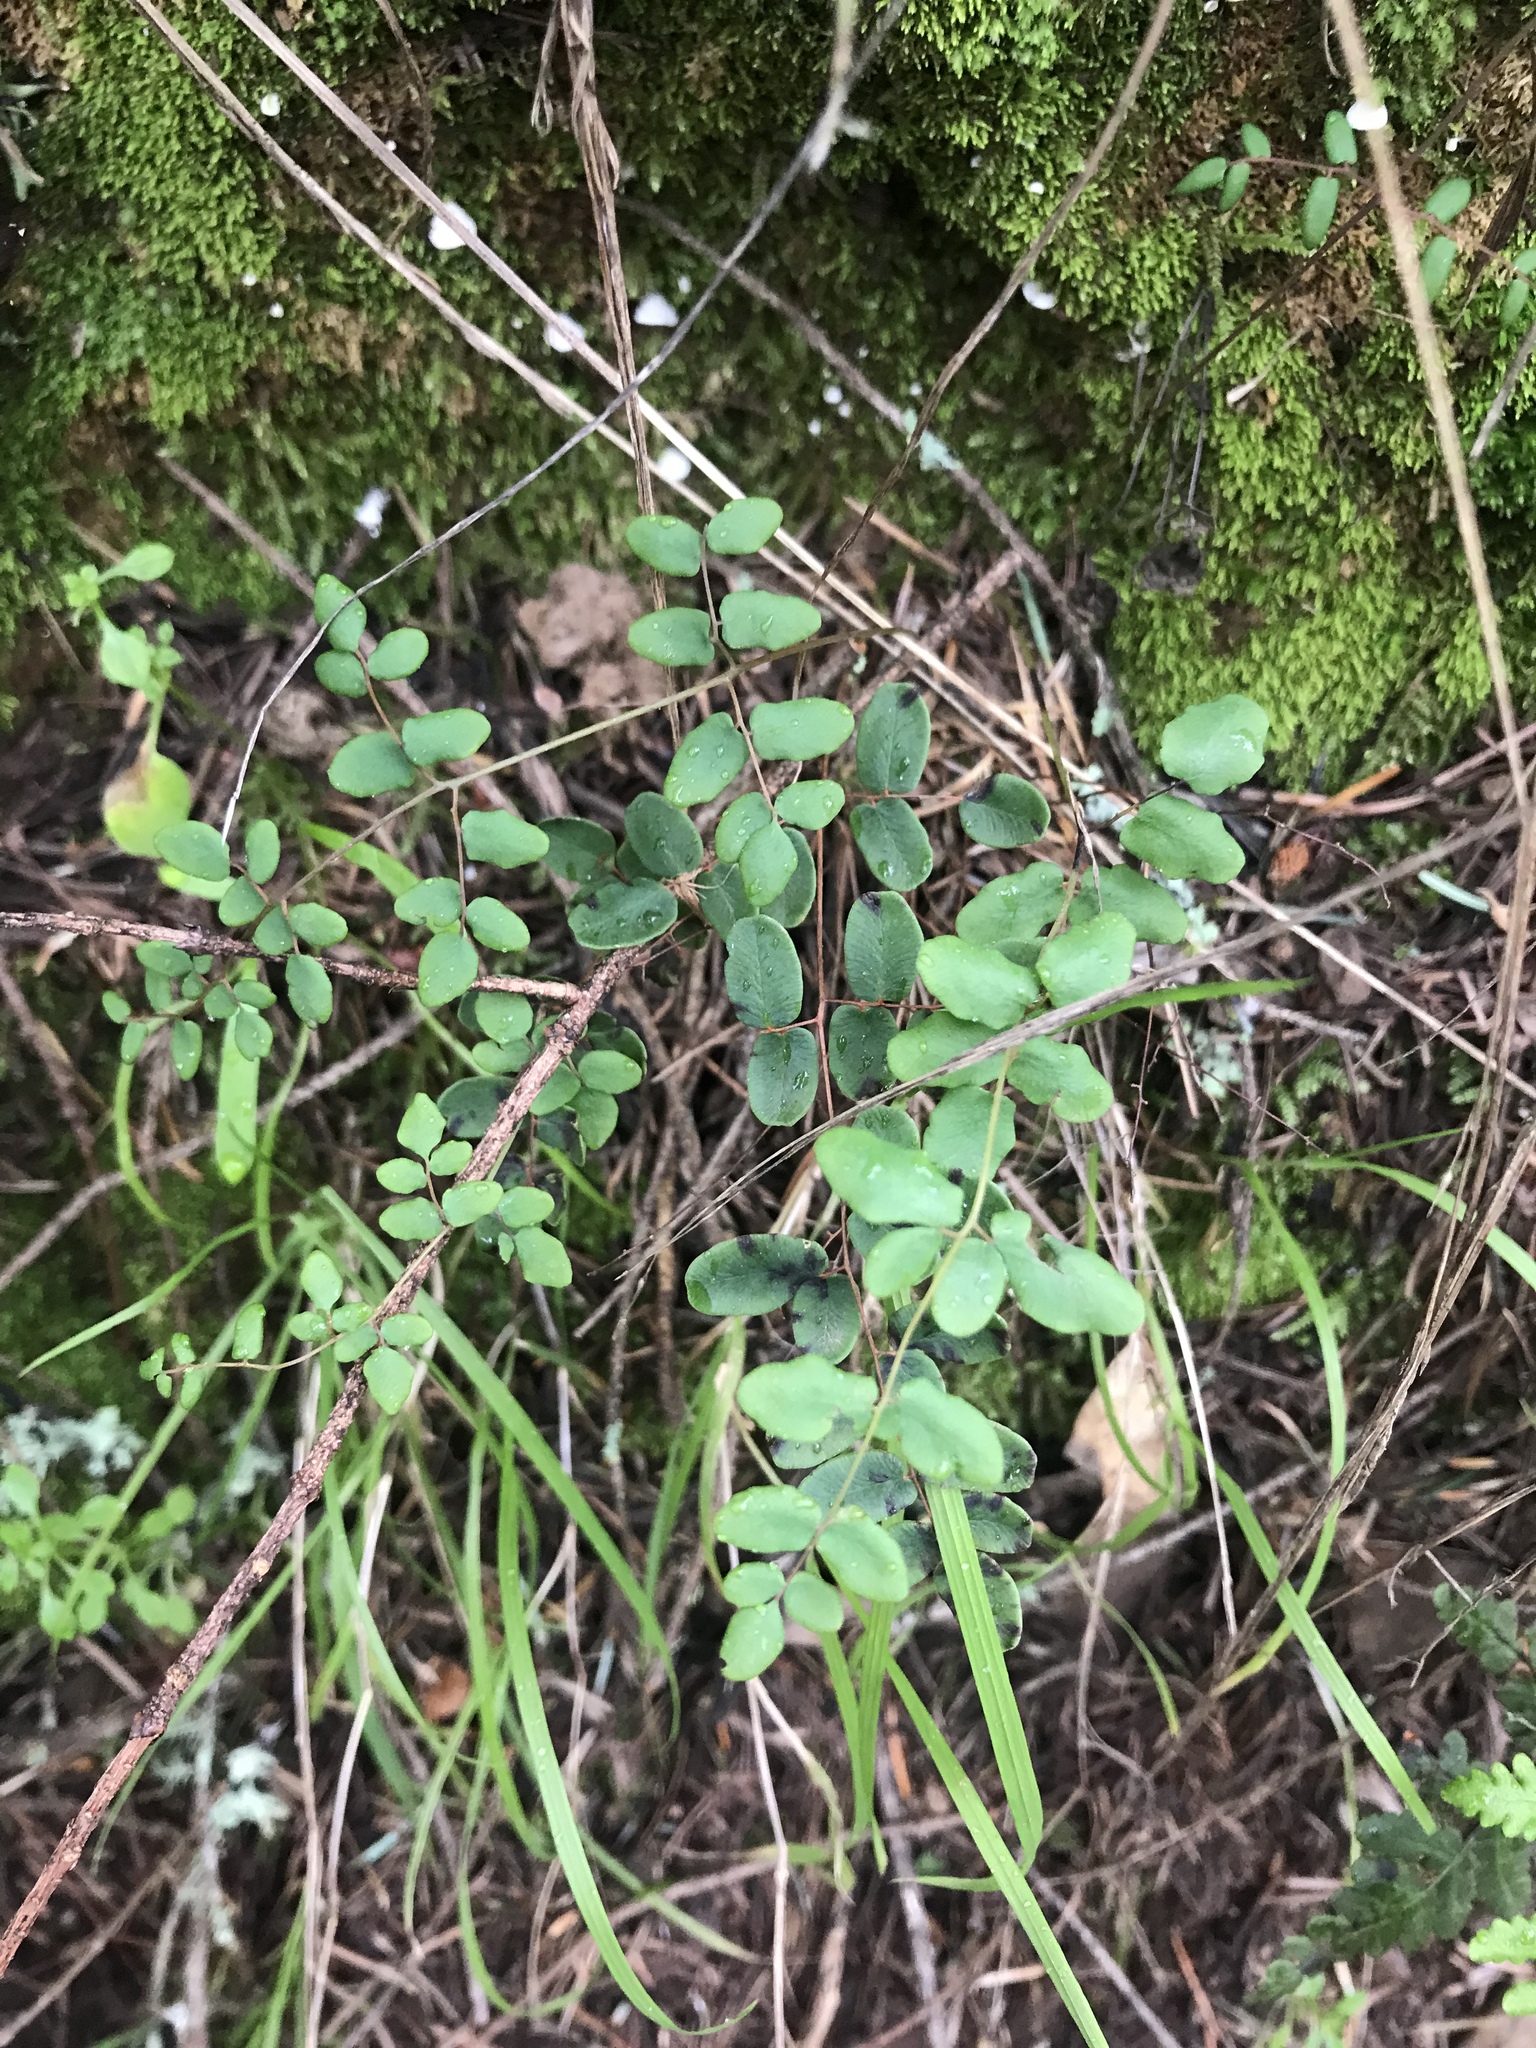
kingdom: Plantae
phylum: Tracheophyta
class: Polypodiopsida
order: Polypodiales
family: Pteridaceae
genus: Pellaea
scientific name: Pellaea andromedifolia
